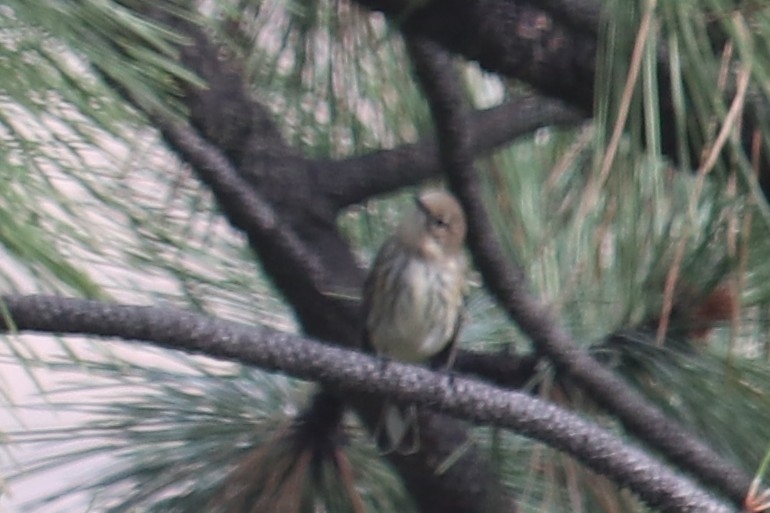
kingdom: Animalia
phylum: Chordata
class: Aves
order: Passeriformes
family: Parulidae
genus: Setophaga
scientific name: Setophaga coronata
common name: Myrtle warbler
